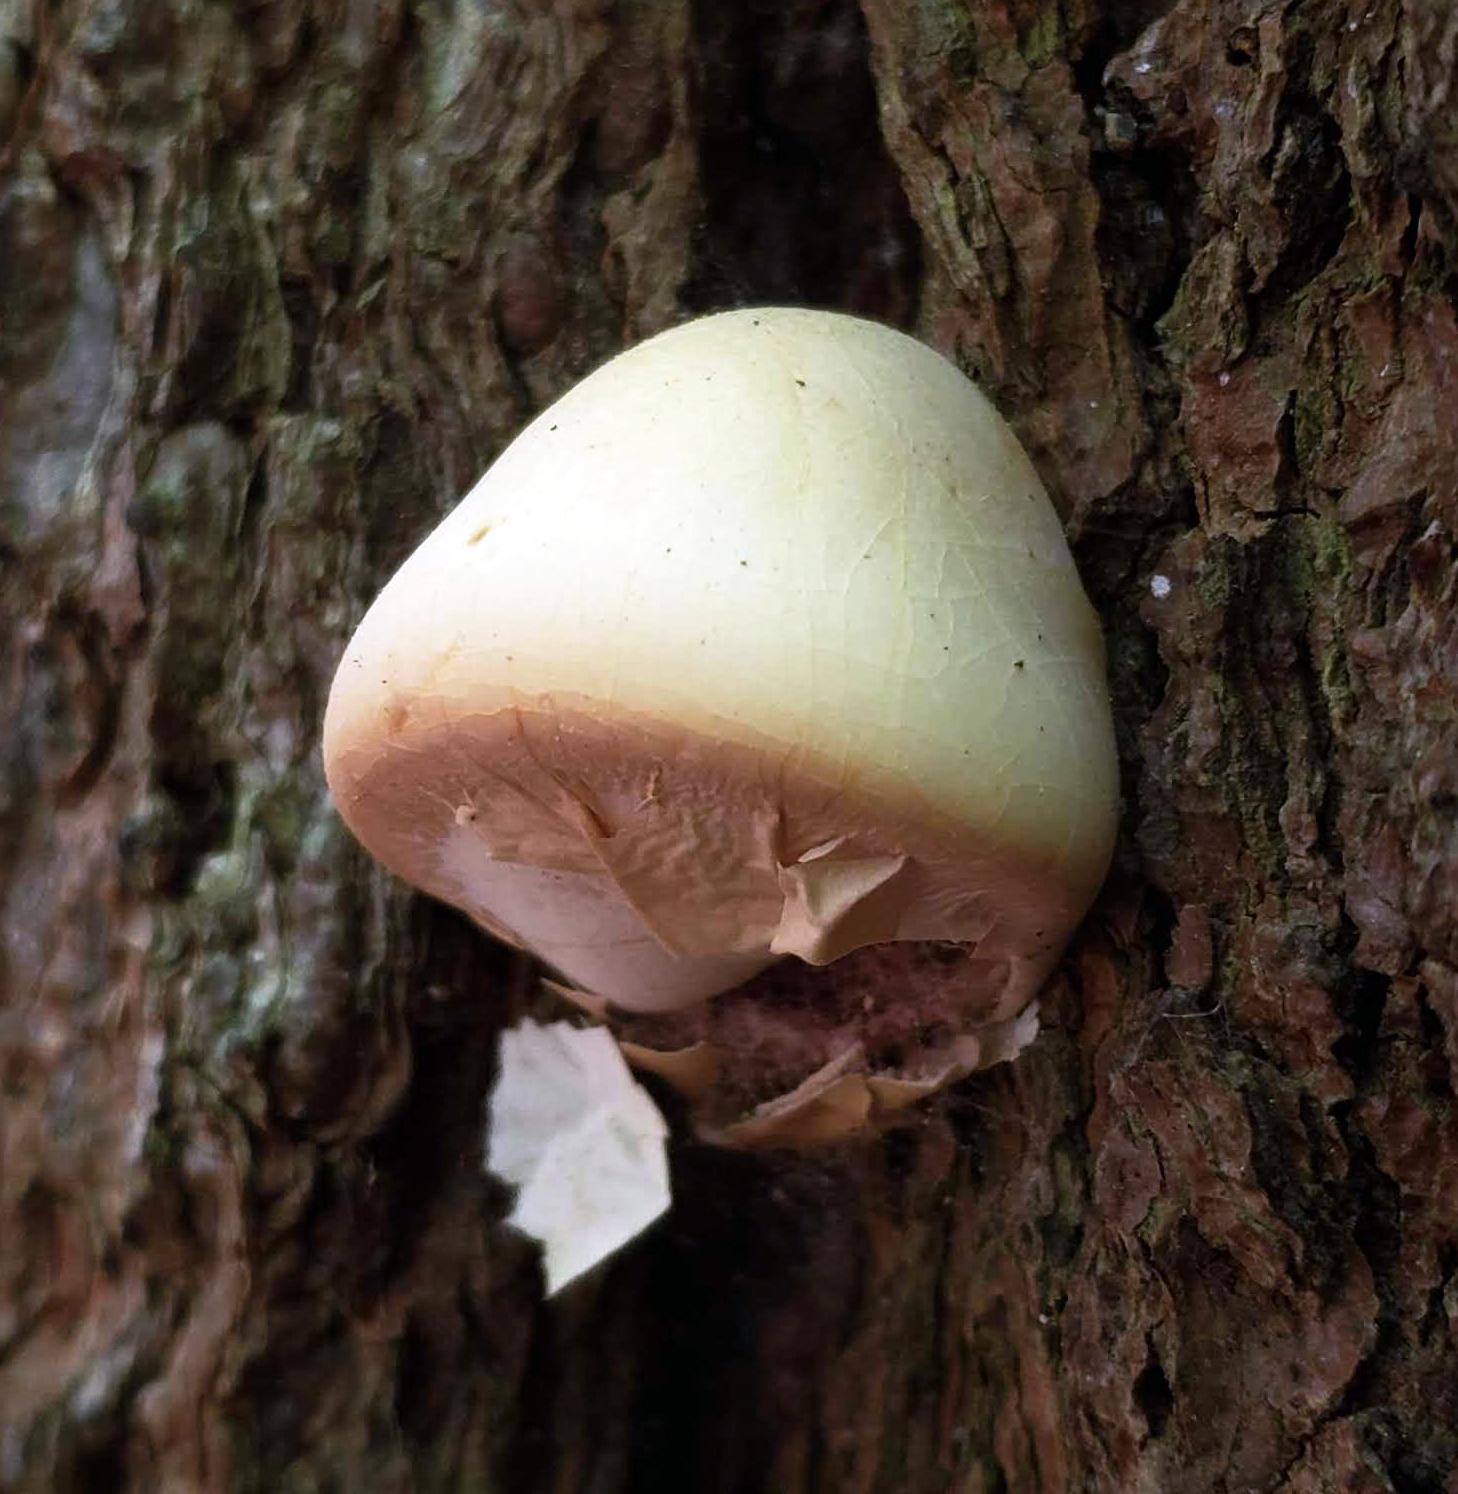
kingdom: Fungi
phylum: Basidiomycota
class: Agaricomycetes
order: Polyporales
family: Polyporaceae
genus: Cryptoporus
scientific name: Cryptoporus volvatus
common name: Veiled polypore
